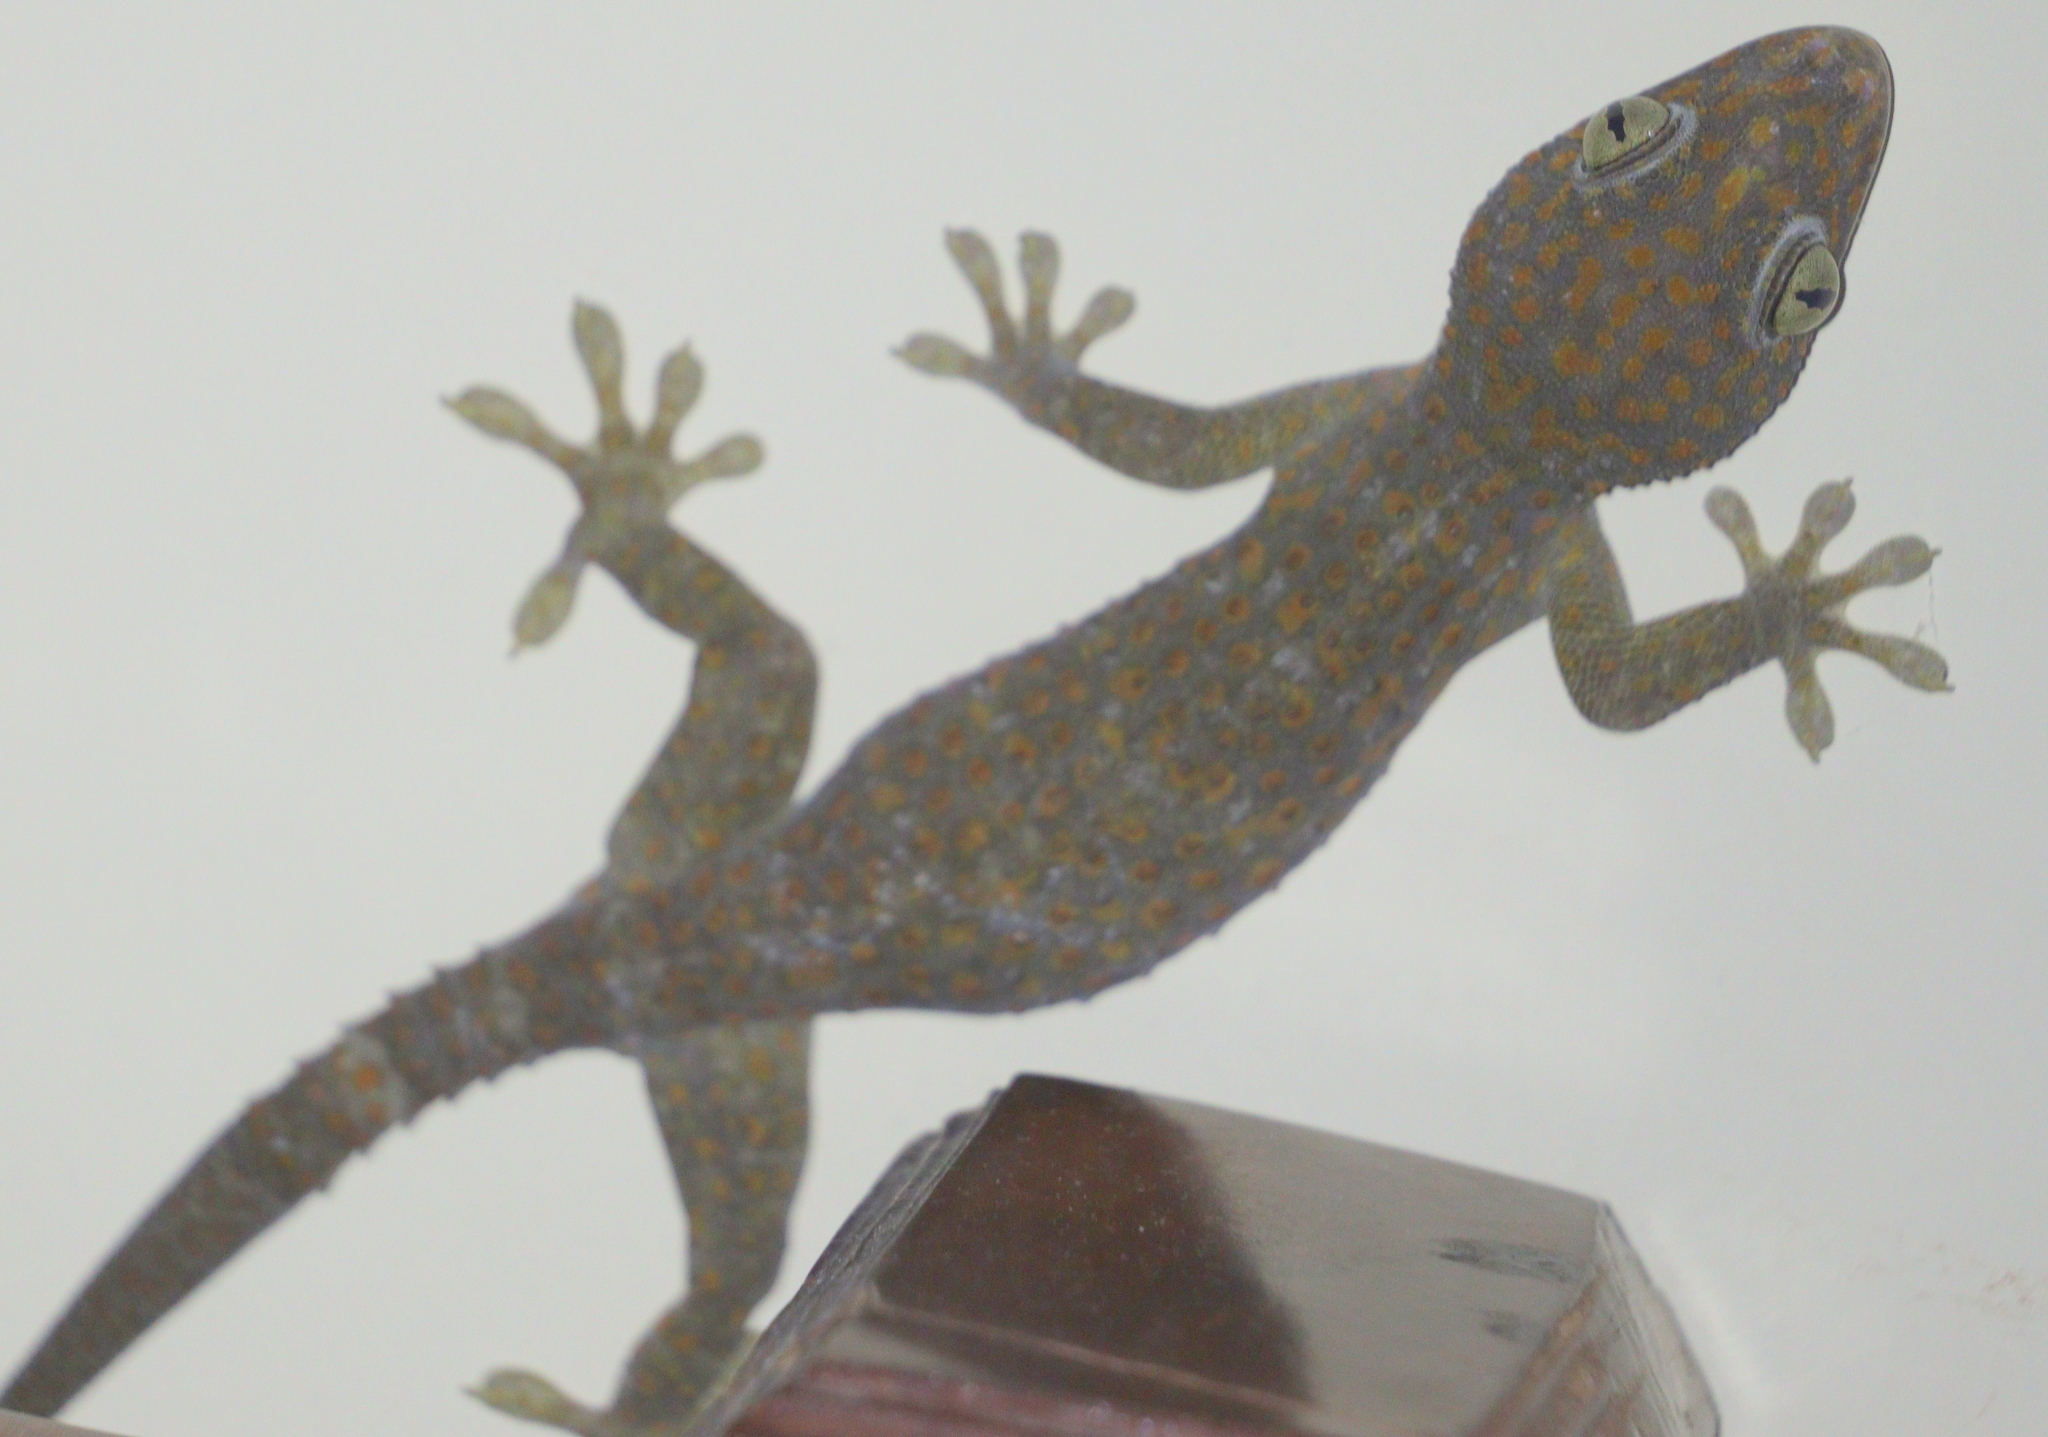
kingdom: Animalia
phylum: Chordata
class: Squamata
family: Gekkonidae
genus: Gekko
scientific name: Gekko gecko
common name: Tokay gecko
